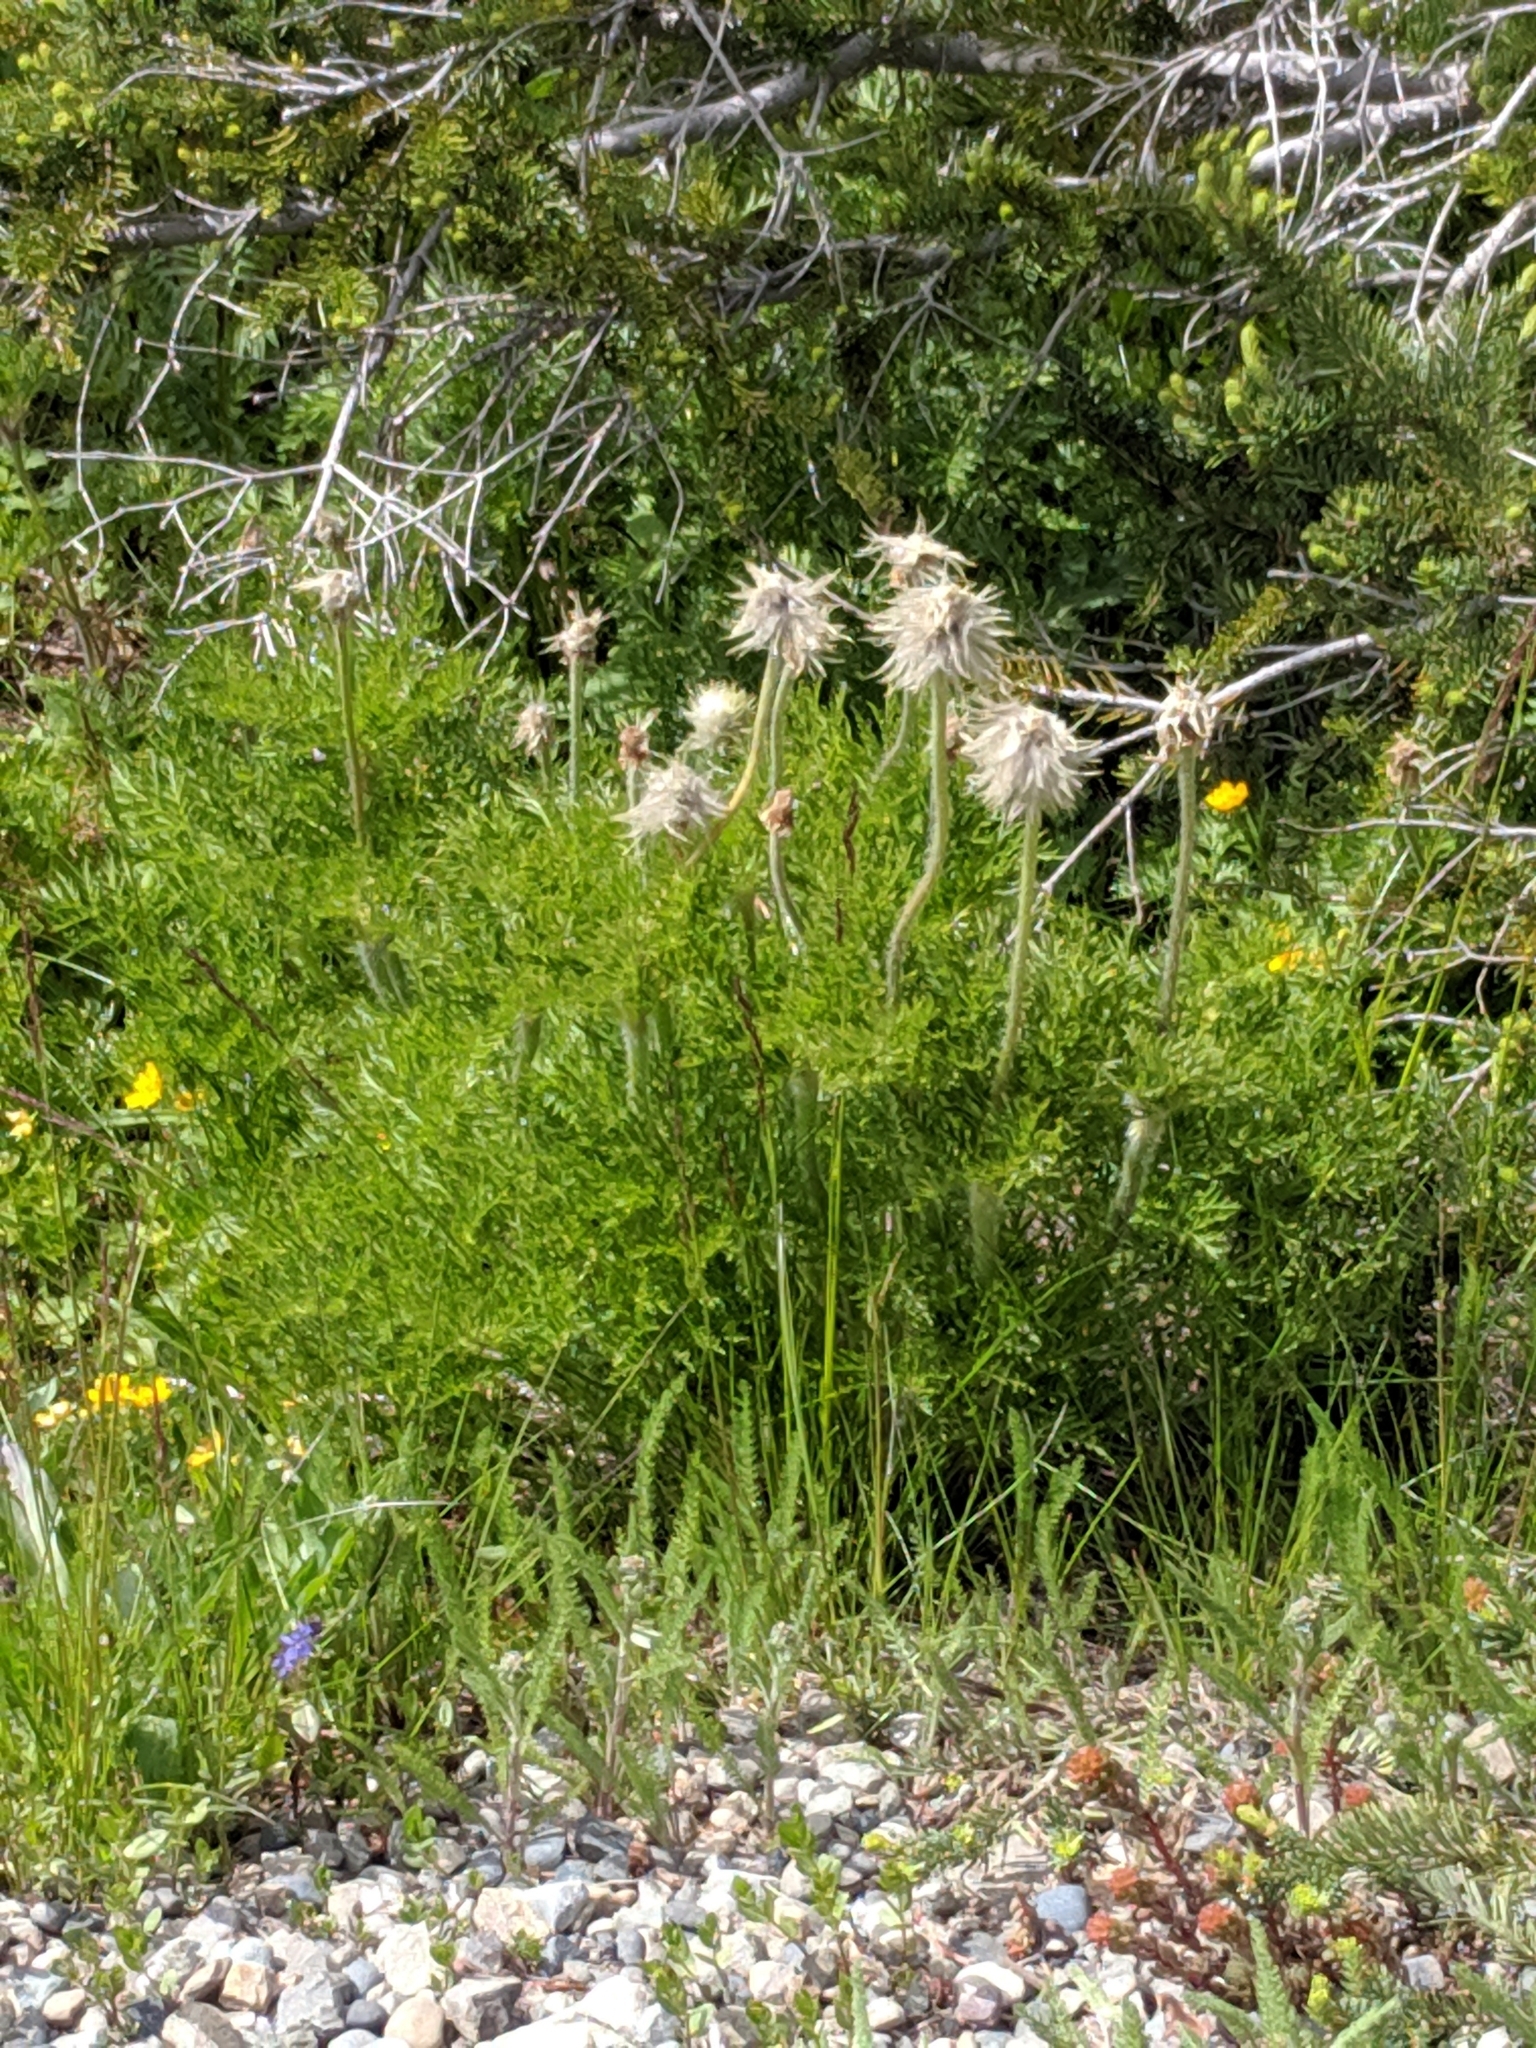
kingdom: Plantae
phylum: Tracheophyta
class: Magnoliopsida
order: Ranunculales
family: Ranunculaceae
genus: Pulsatilla
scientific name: Pulsatilla occidentalis
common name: Mountain pasqueflower
